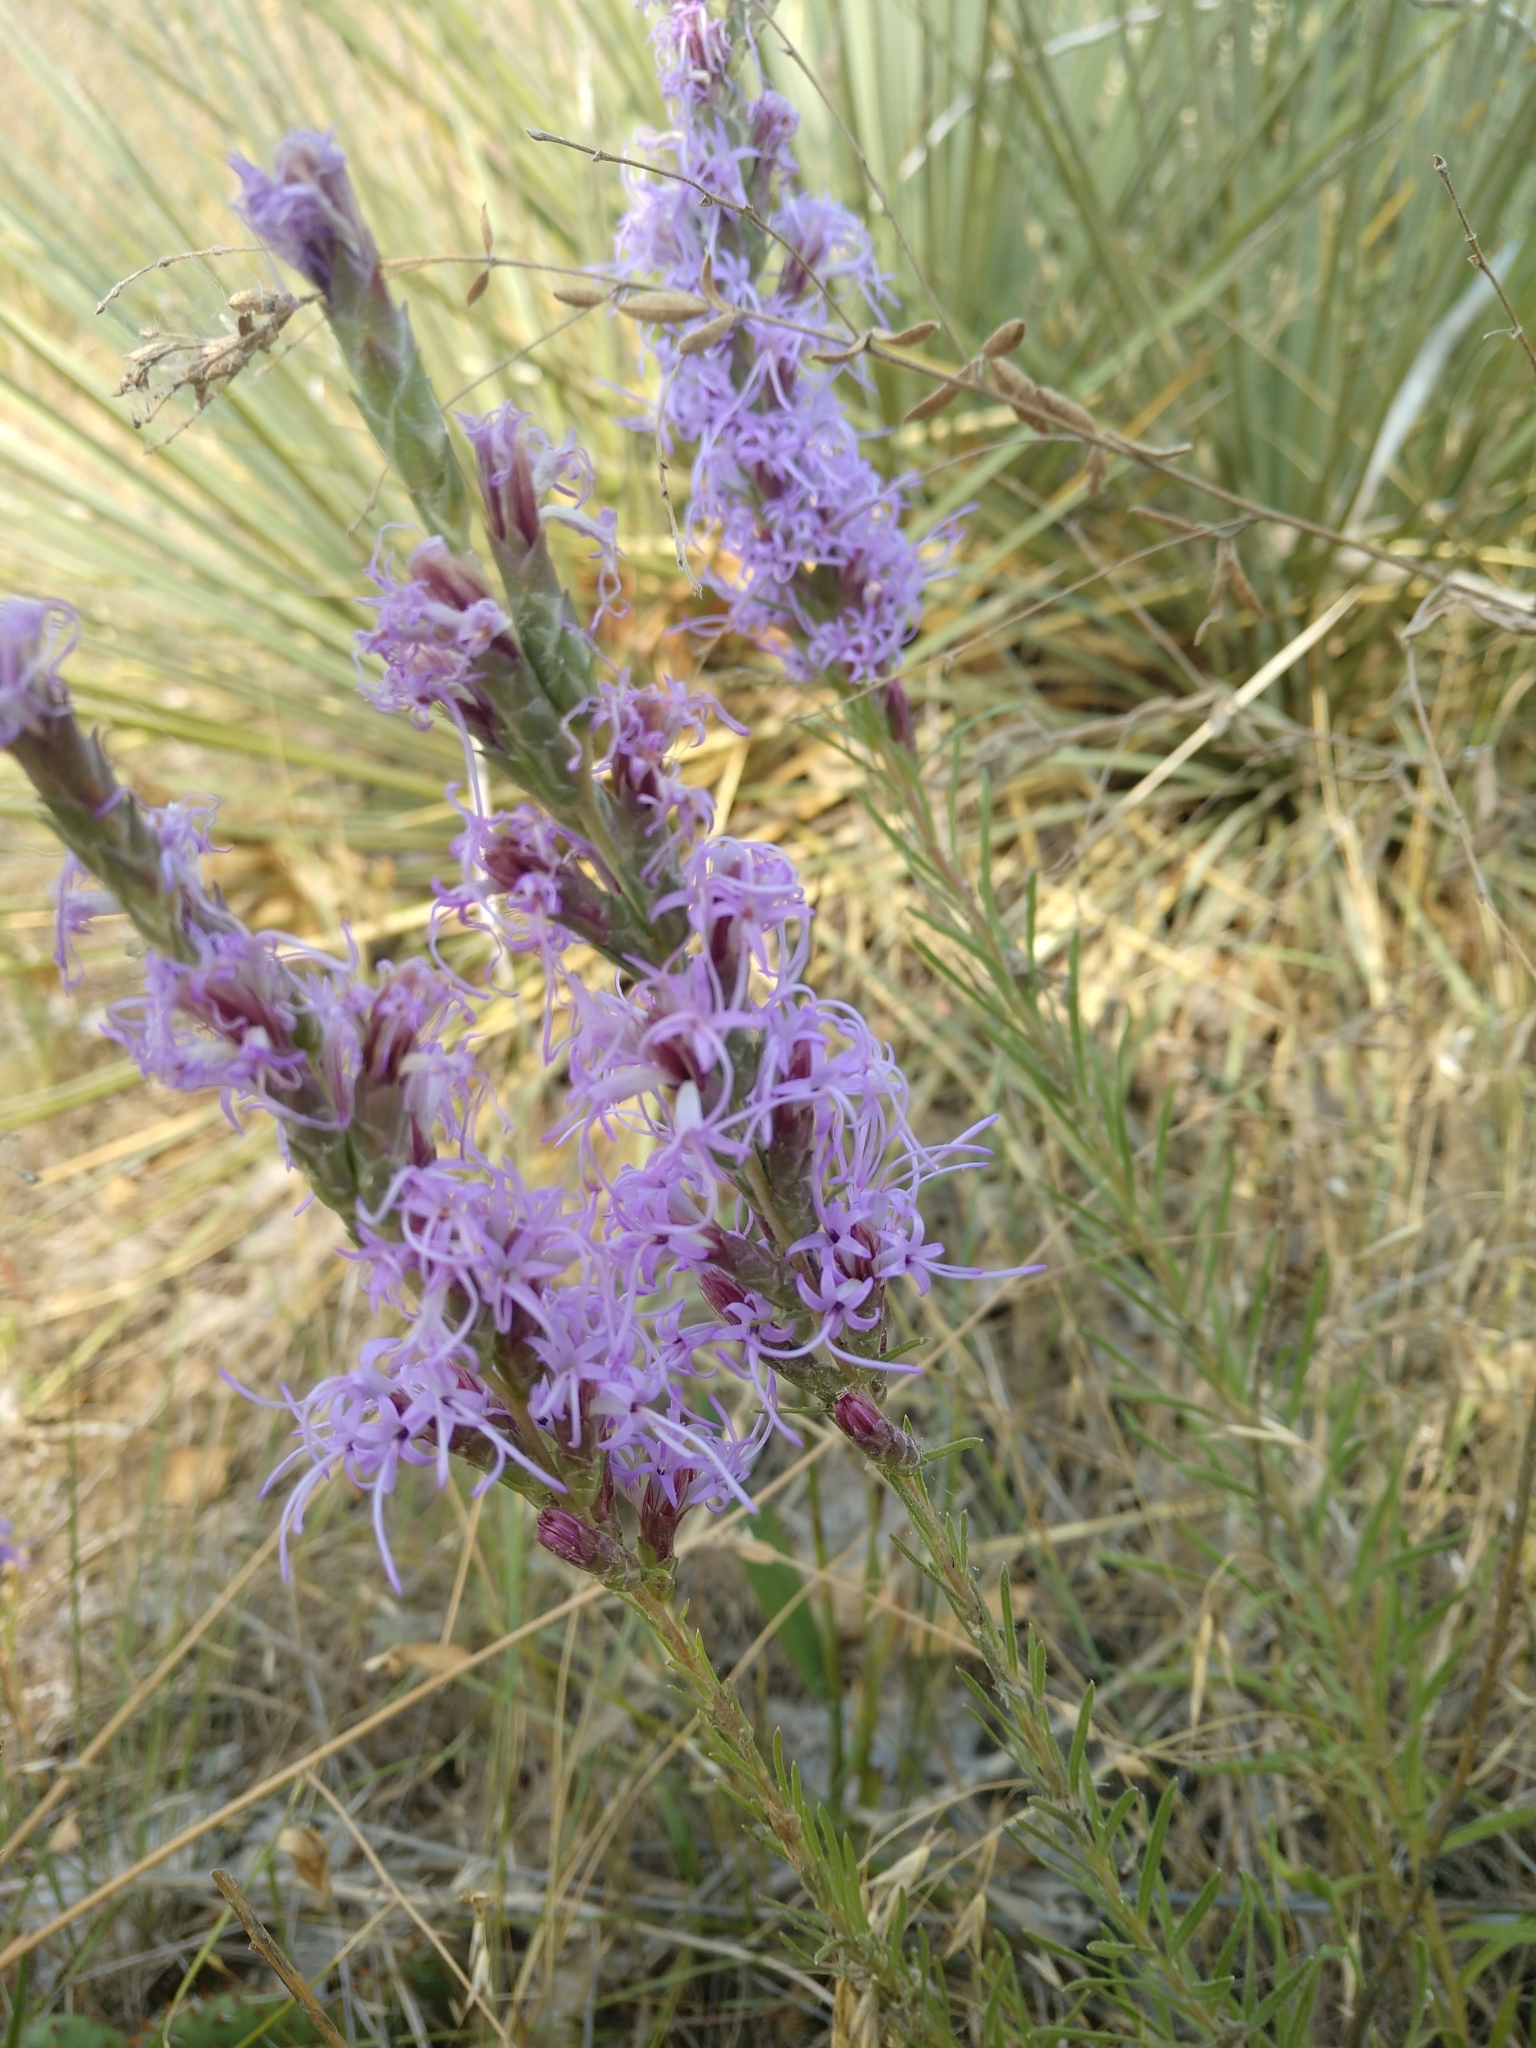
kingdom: Plantae
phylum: Tracheophyta
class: Magnoliopsida
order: Asterales
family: Asteraceae
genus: Liatris
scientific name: Liatris punctata
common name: Dotted gayfeather
